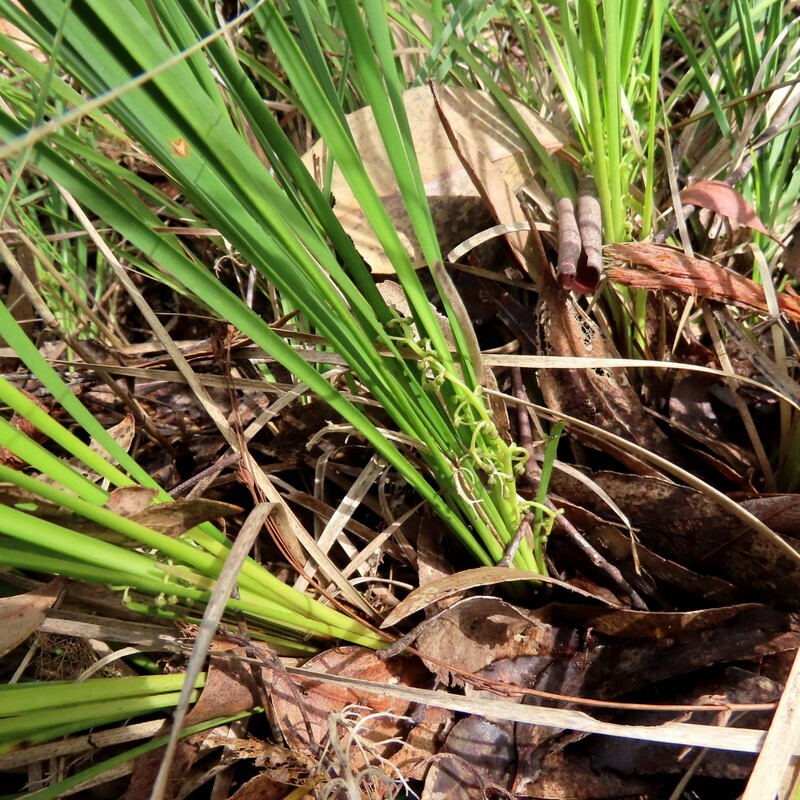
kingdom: Plantae
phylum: Tracheophyta
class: Liliopsida
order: Asparagales
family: Asparagaceae
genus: Lomandra
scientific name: Lomandra filiformis
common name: Wattle mat-rush
